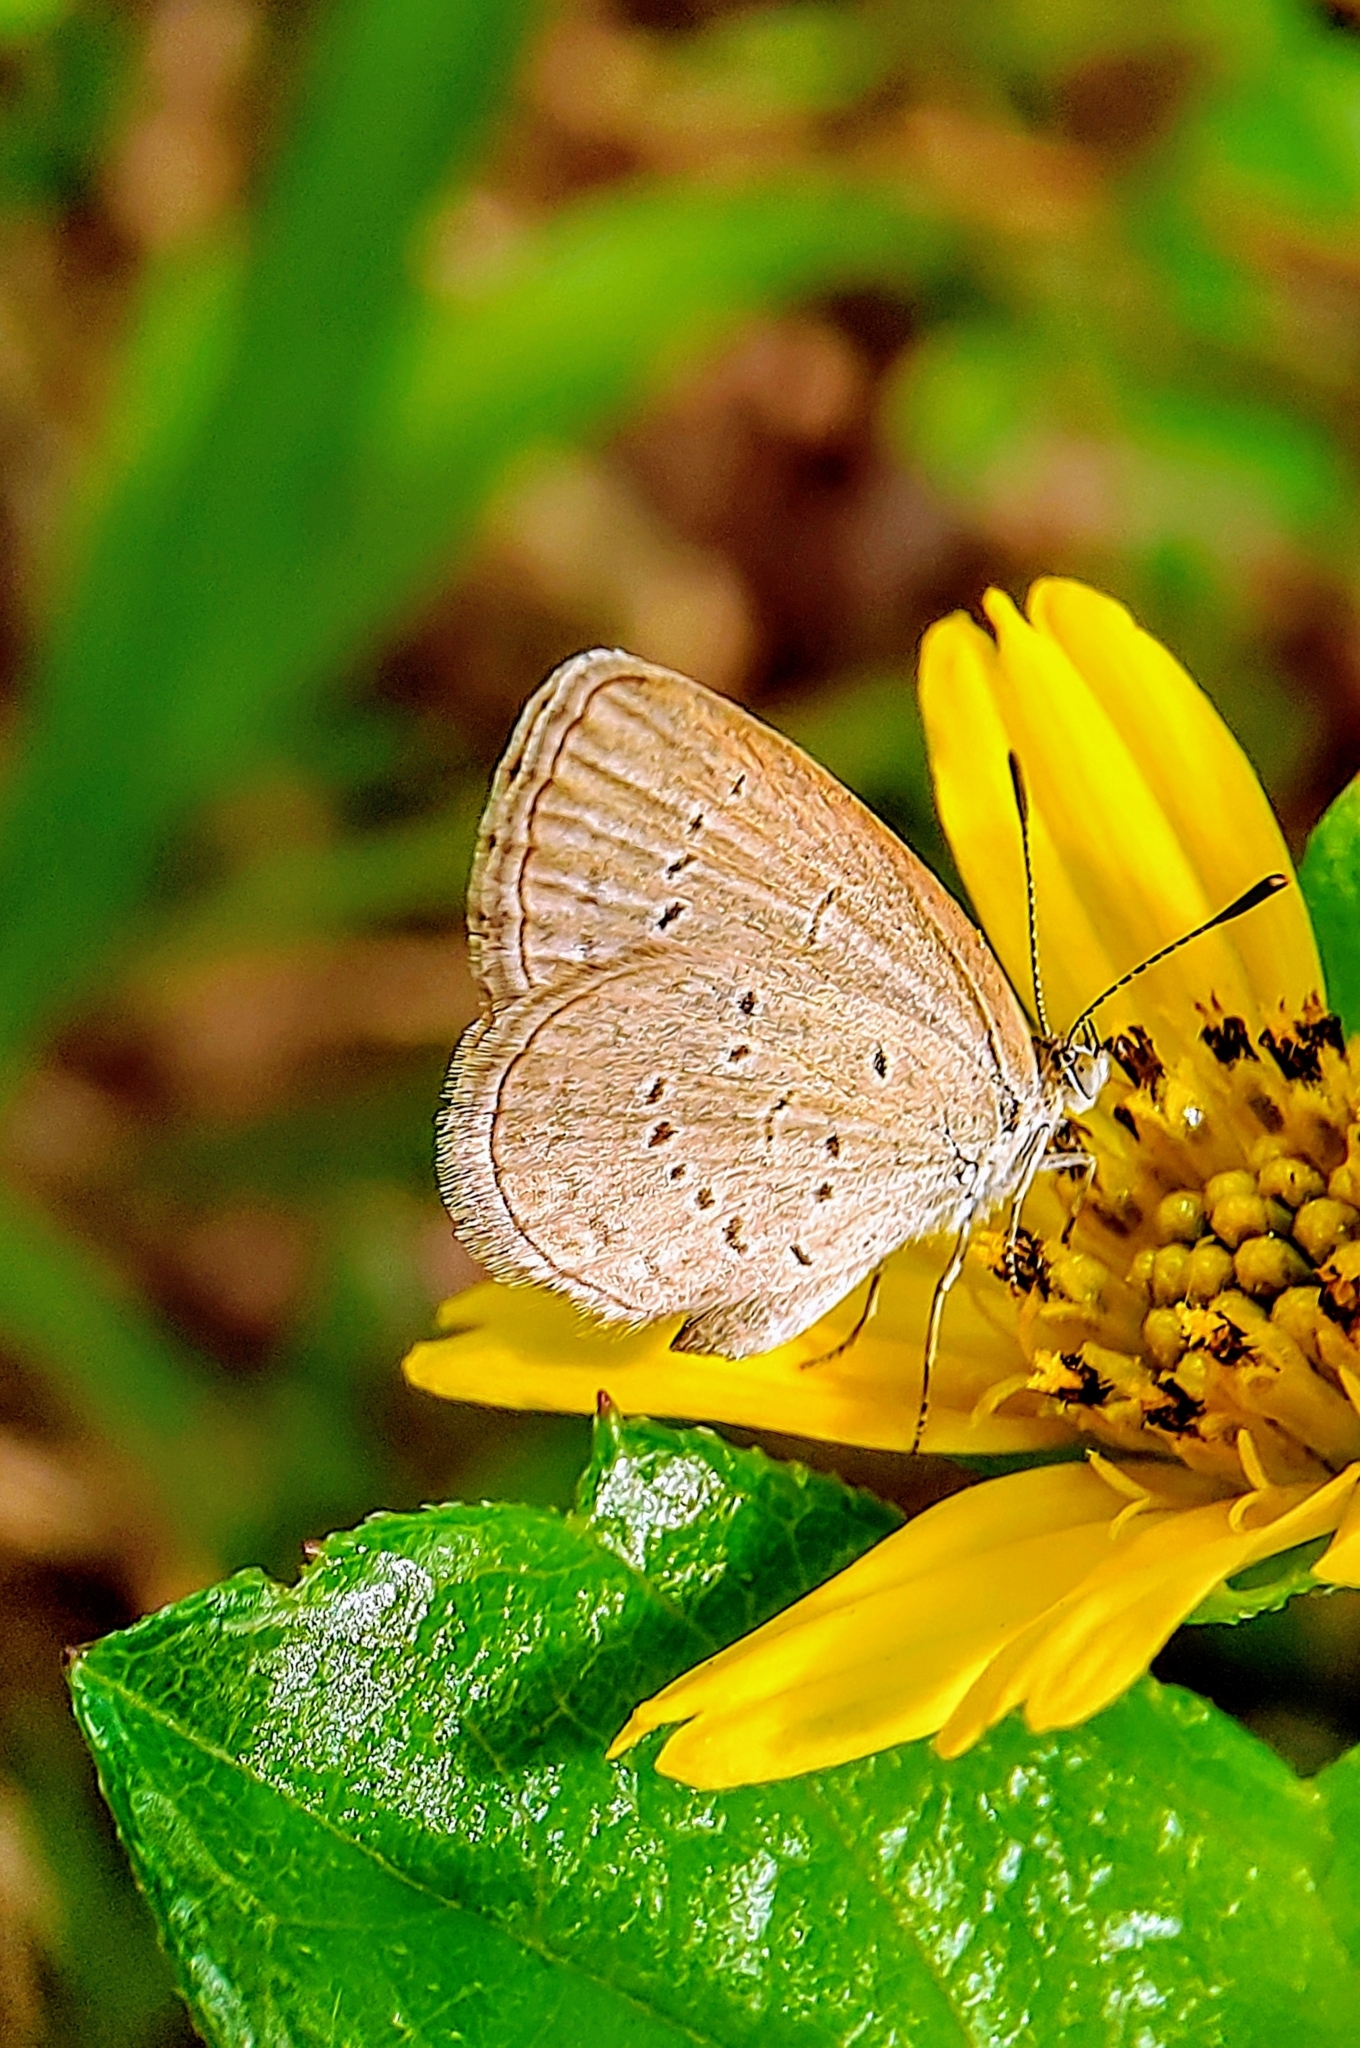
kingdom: Animalia
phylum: Arthropoda
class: Insecta
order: Lepidoptera
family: Lycaenidae
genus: Zizina
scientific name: Zizina otis
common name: Lesser grass blue
